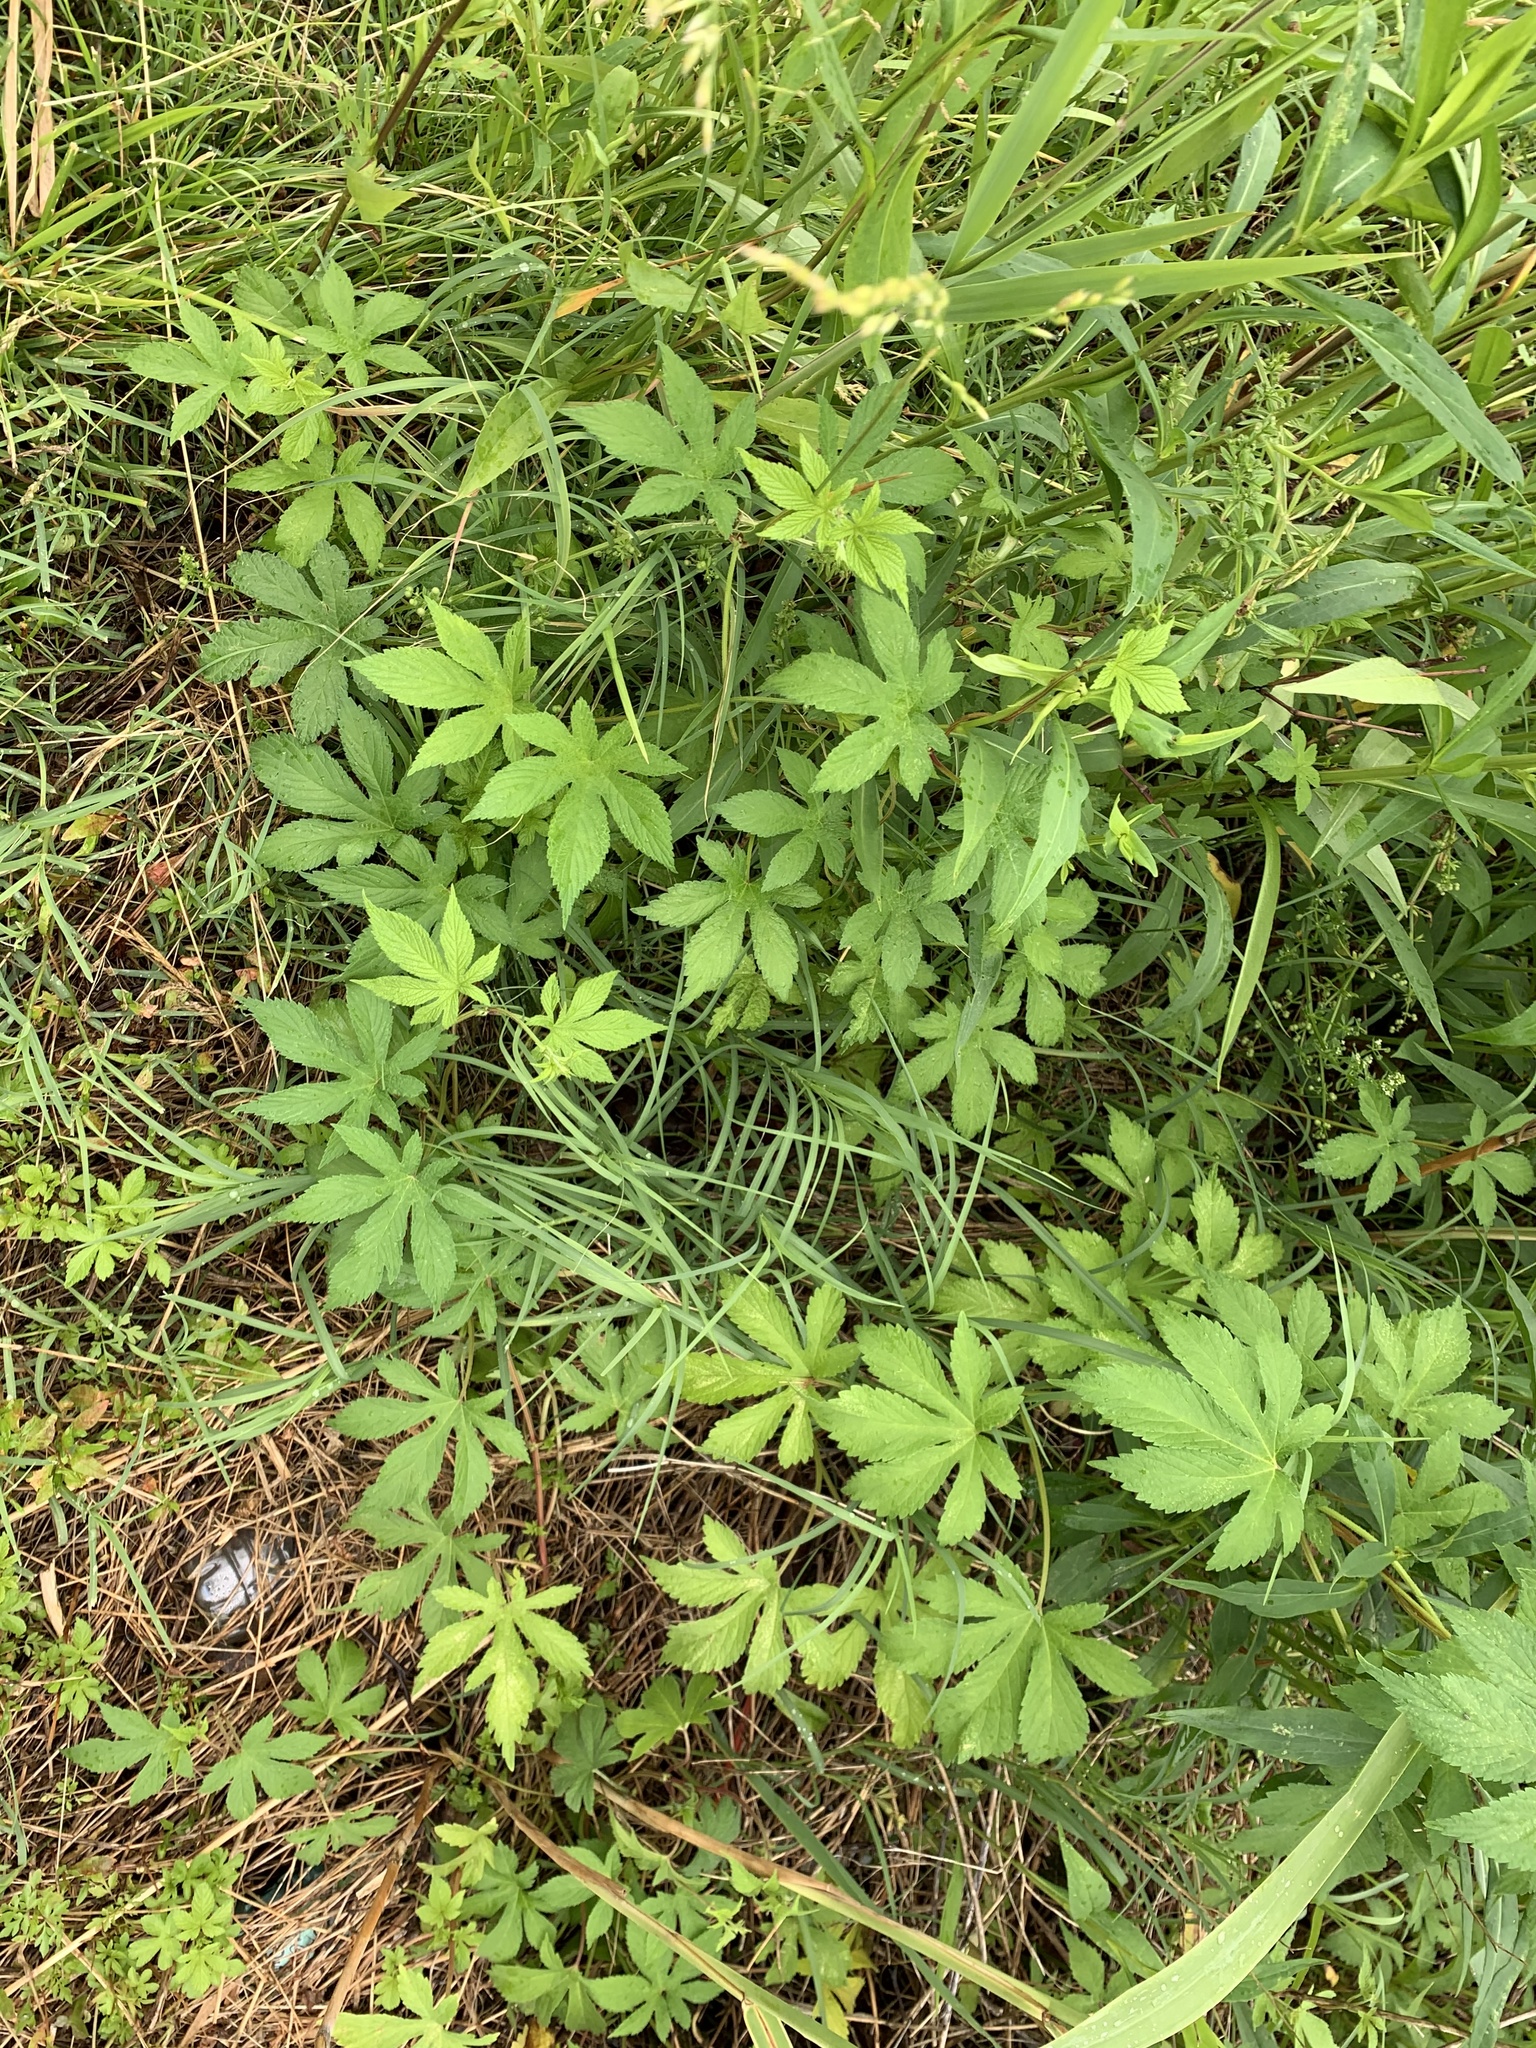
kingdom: Plantae
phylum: Tracheophyta
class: Magnoliopsida
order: Rosales
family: Cannabaceae
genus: Humulus
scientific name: Humulus scandens
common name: Japanese hop
